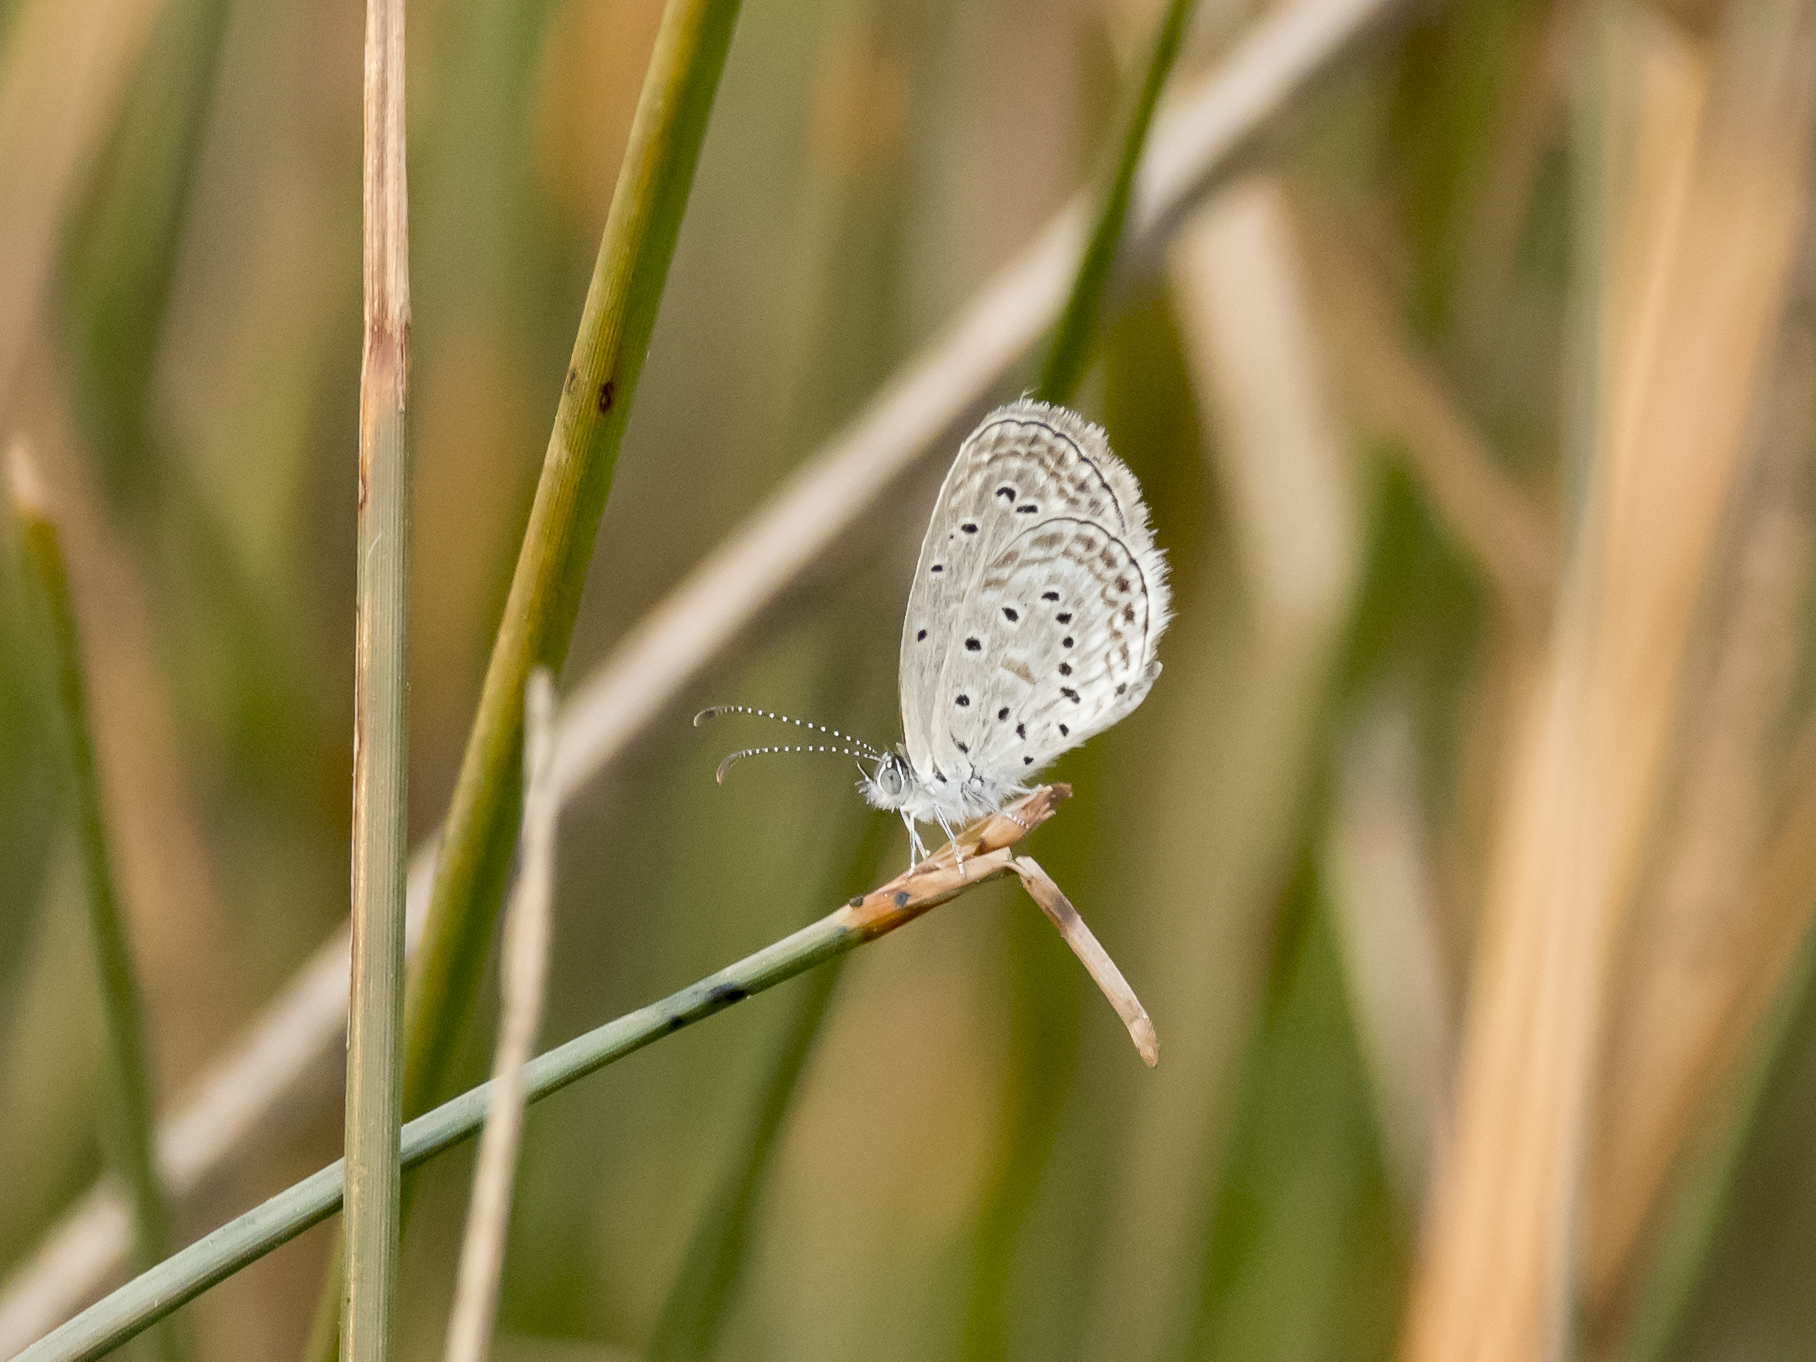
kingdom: Animalia
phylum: Arthropoda
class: Insecta
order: Lepidoptera
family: Lycaenidae
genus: Zizula
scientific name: Zizula hylax
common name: Gaika blue
